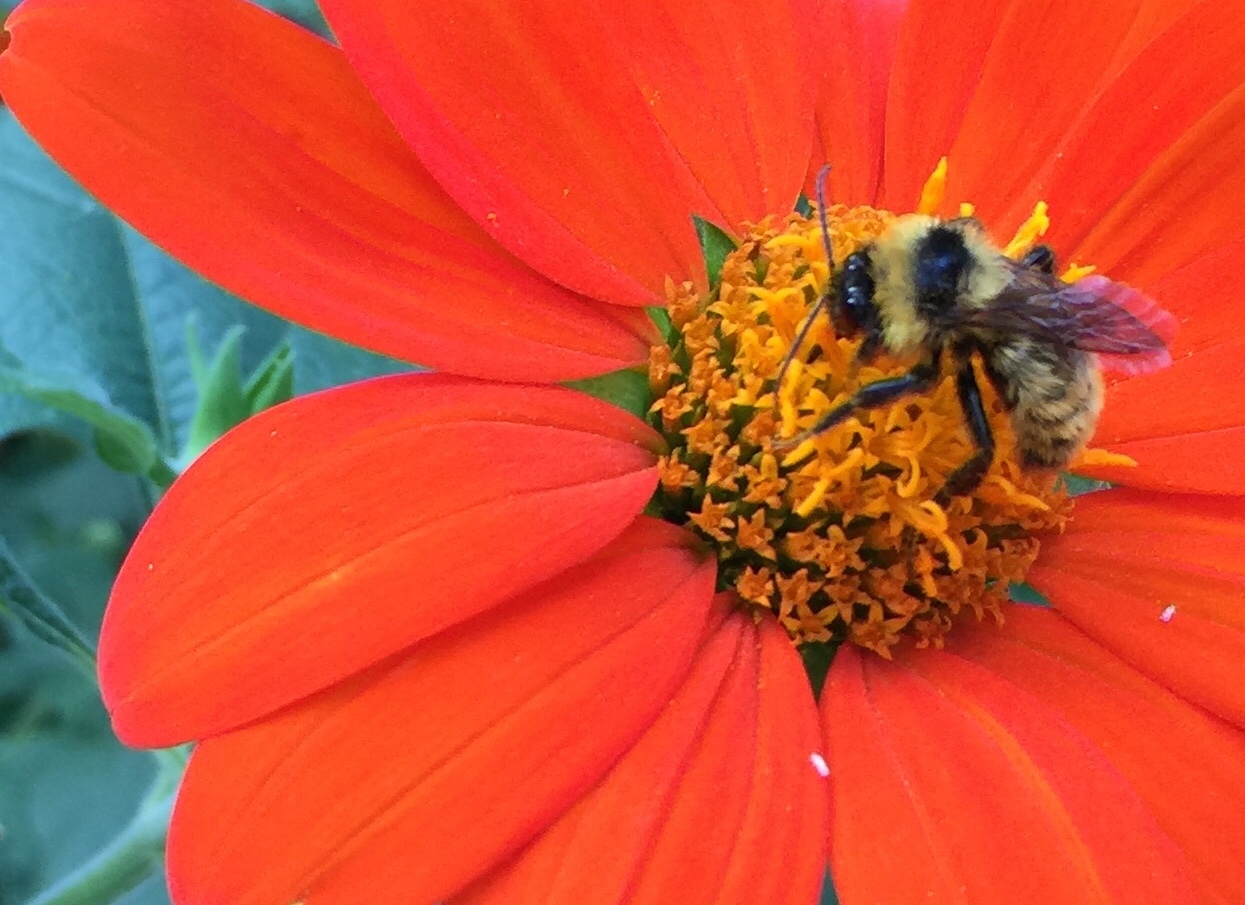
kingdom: Animalia
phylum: Arthropoda
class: Insecta
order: Hymenoptera
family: Apidae
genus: Bombus
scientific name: Bombus fervidus
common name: Yellow bumble bee
